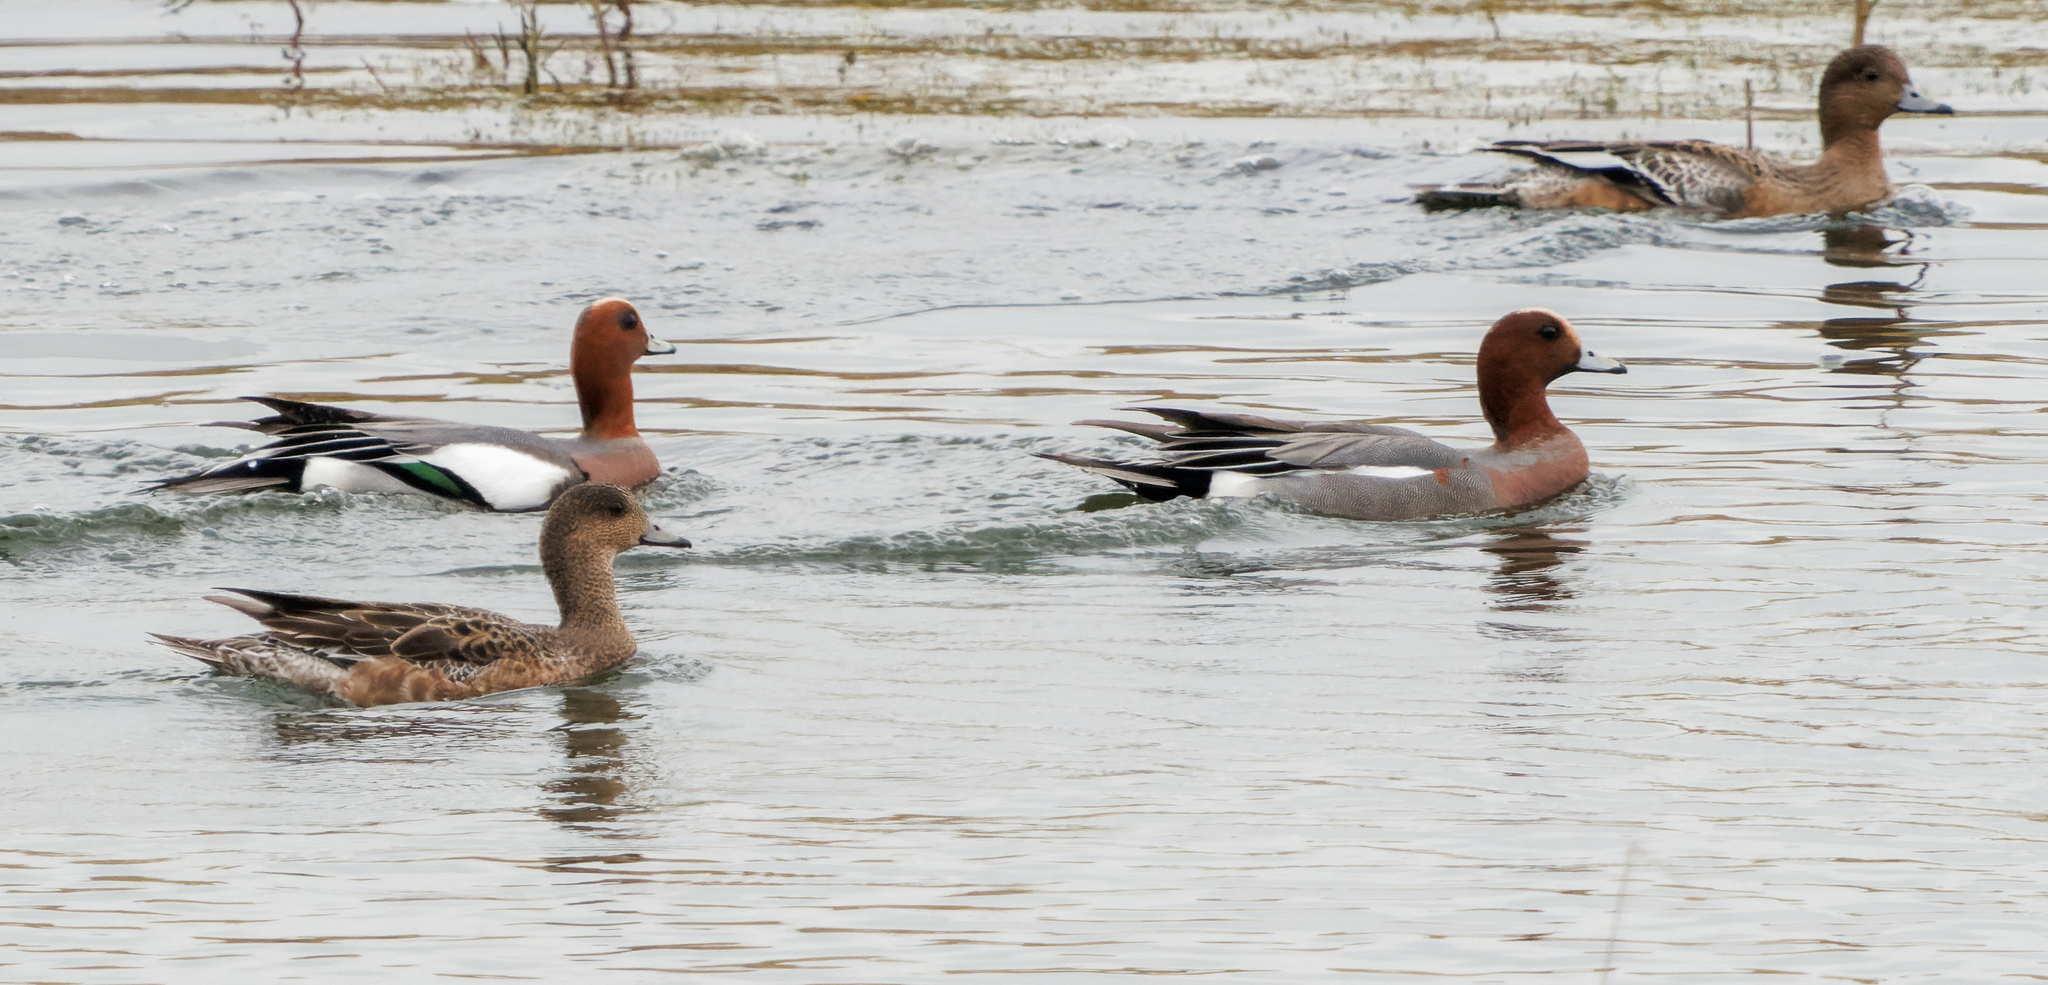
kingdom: Animalia
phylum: Chordata
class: Aves
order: Anseriformes
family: Anatidae
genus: Mareca
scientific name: Mareca penelope
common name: Eurasian wigeon
